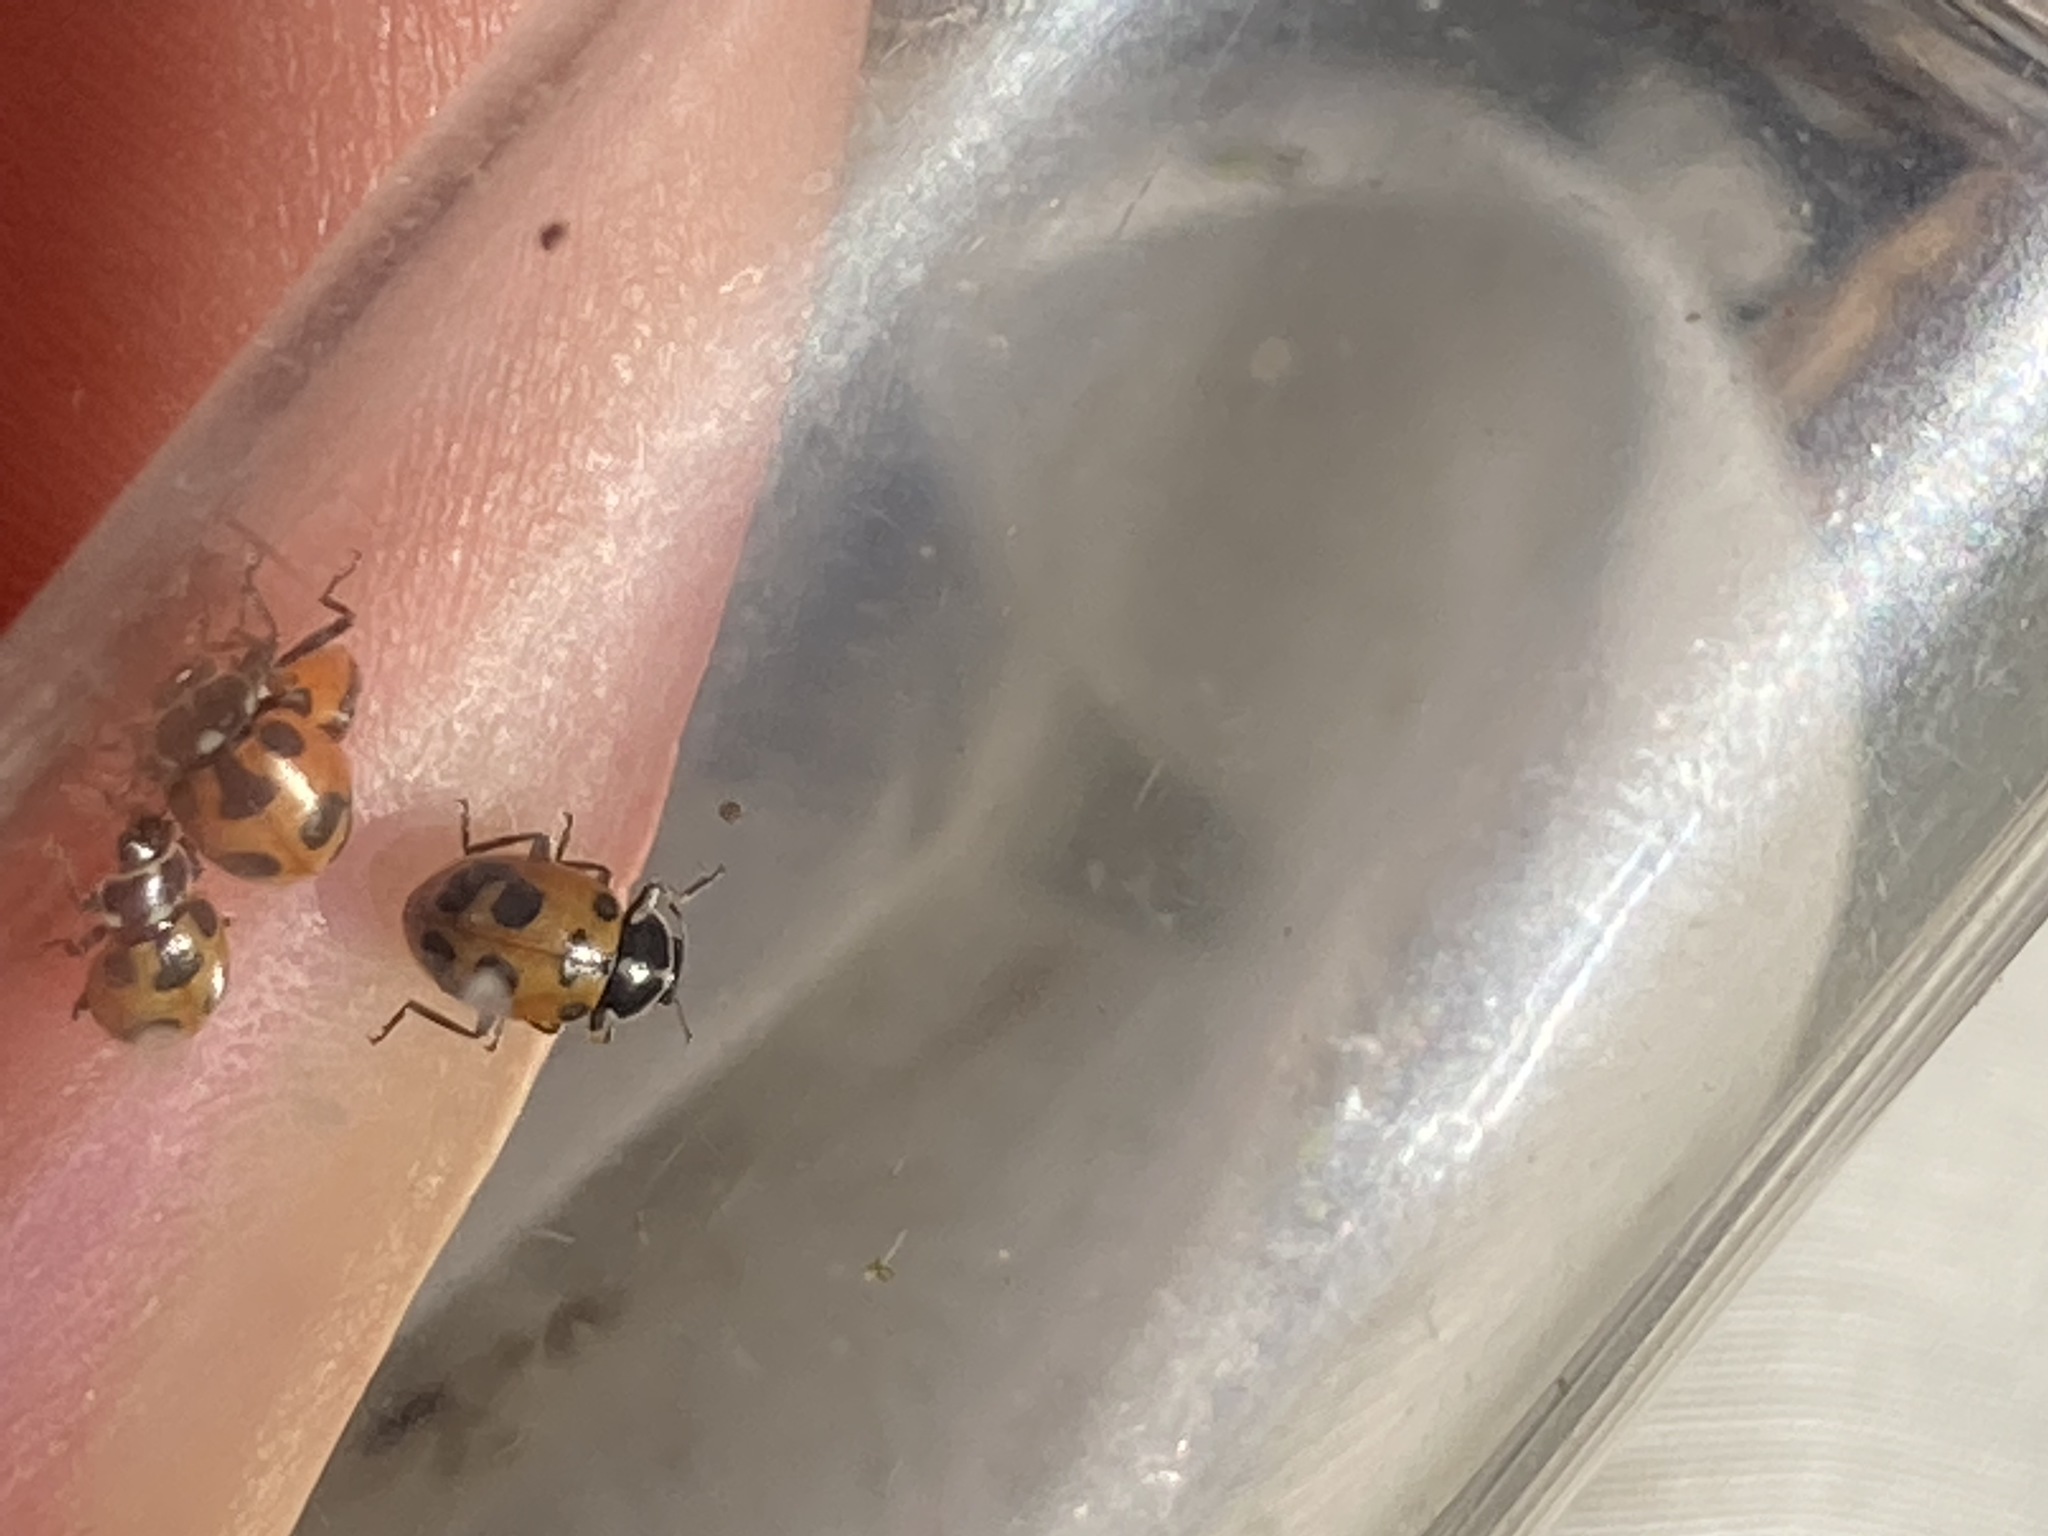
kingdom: Animalia
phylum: Arthropoda
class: Insecta
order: Coleoptera
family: Coccinellidae
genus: Hippodamia
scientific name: Hippodamia parenthesis
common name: Parenthesis lady beetle
